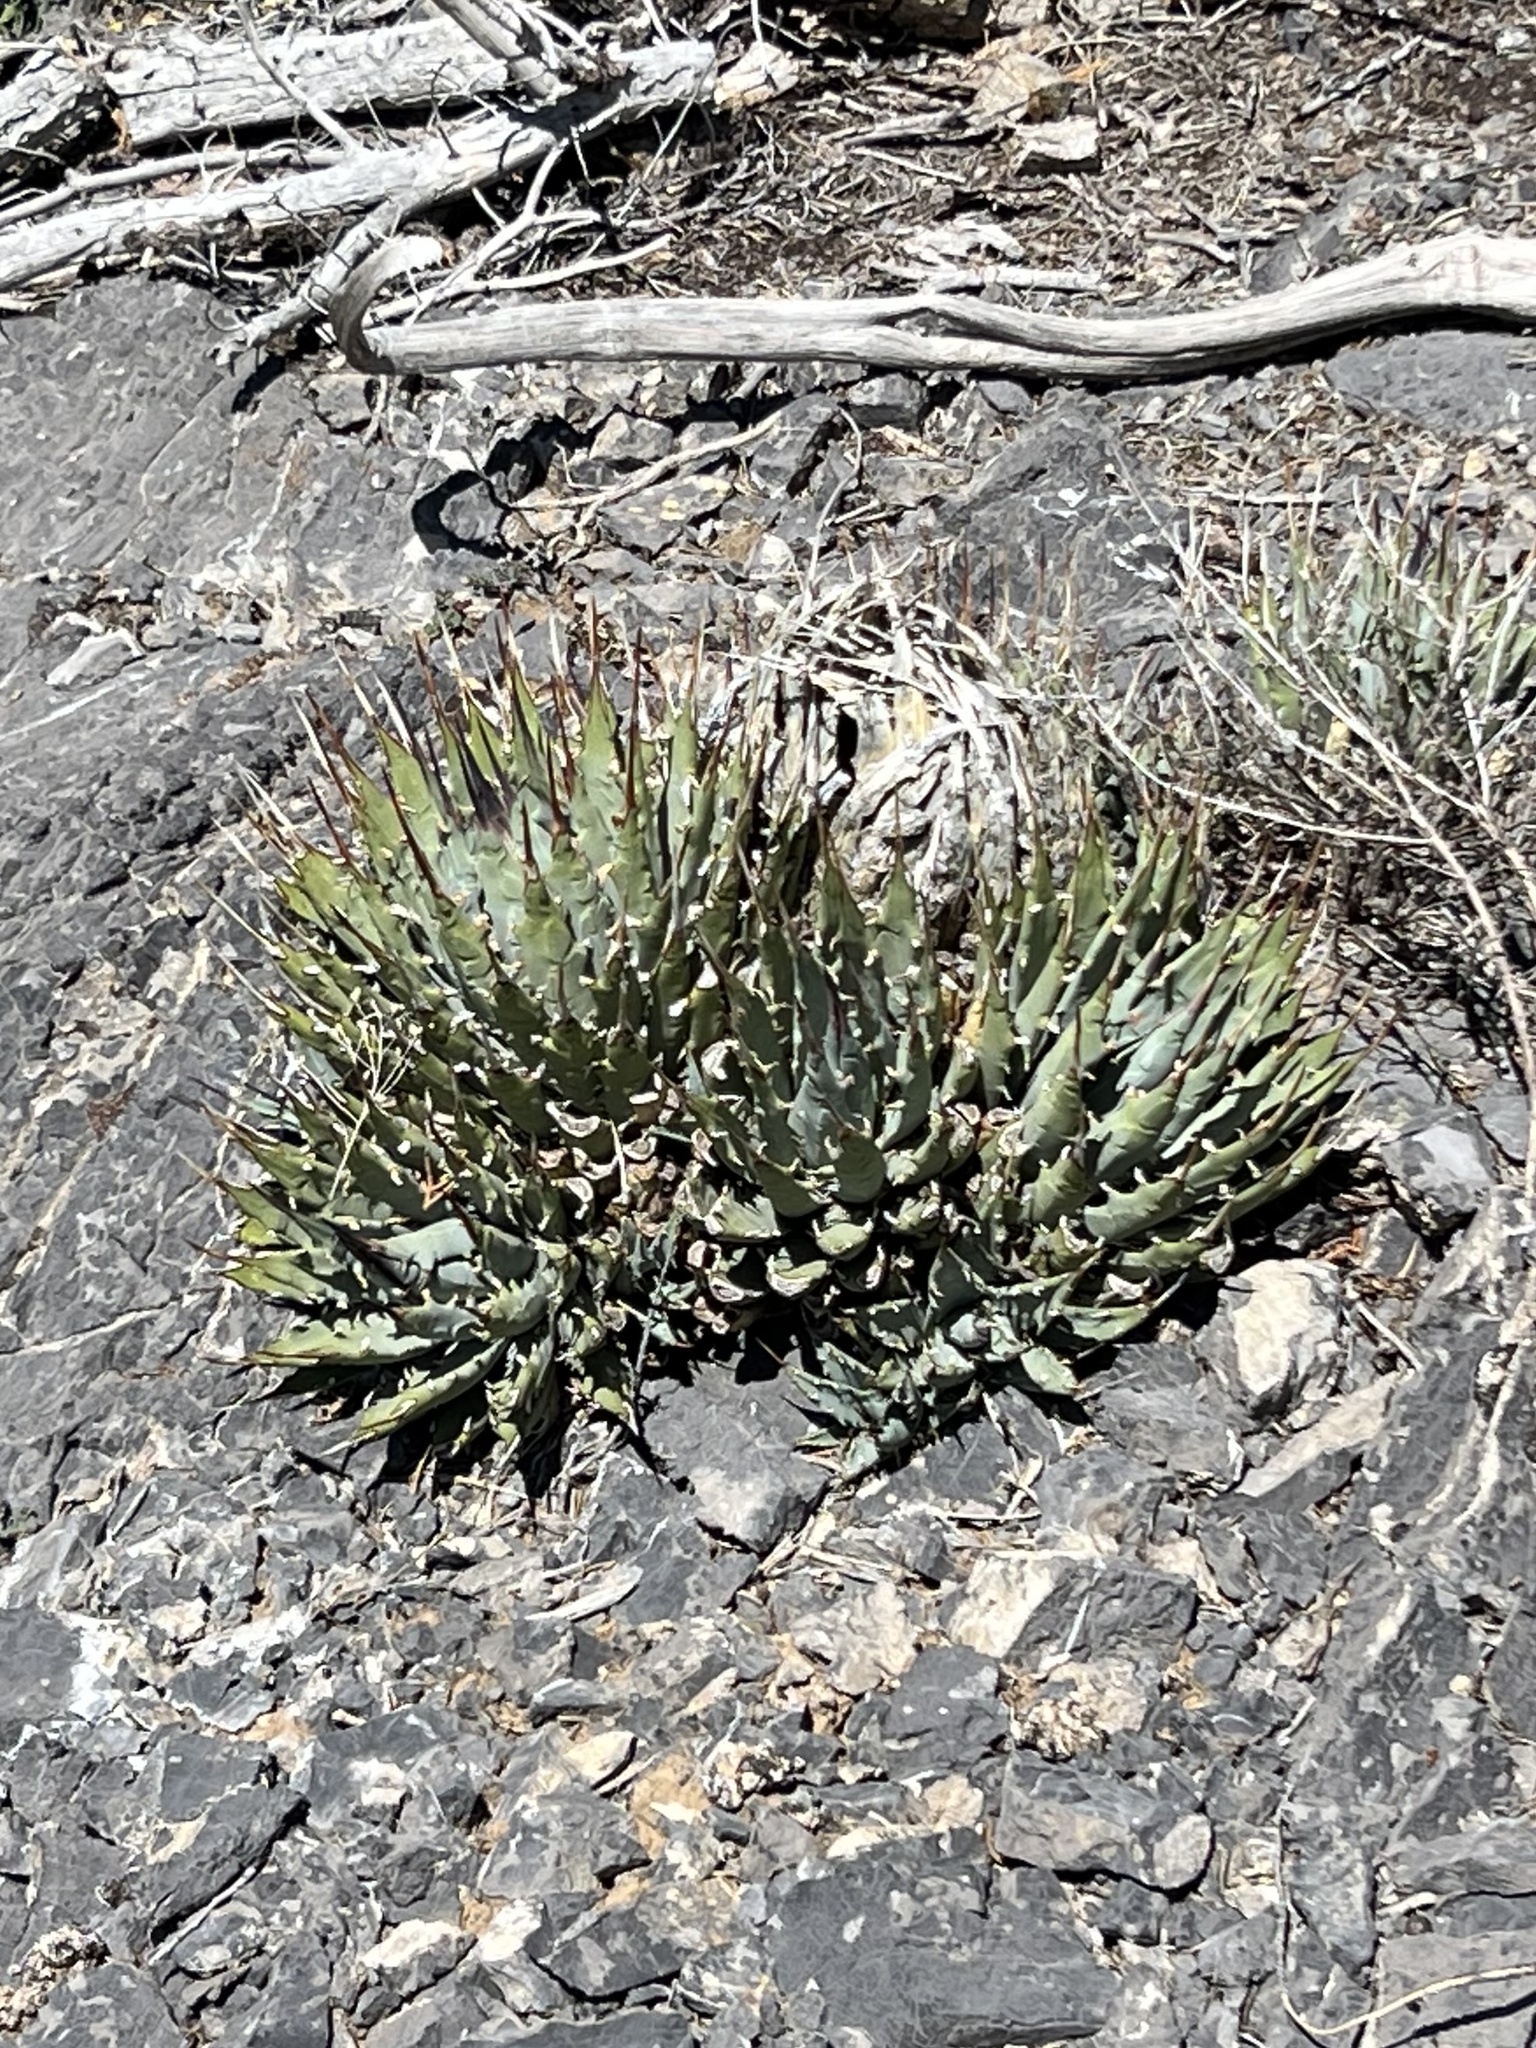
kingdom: Plantae
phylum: Tracheophyta
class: Liliopsida
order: Asparagales
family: Asparagaceae
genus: Agave
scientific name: Agave utahensis
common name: Utah agave
